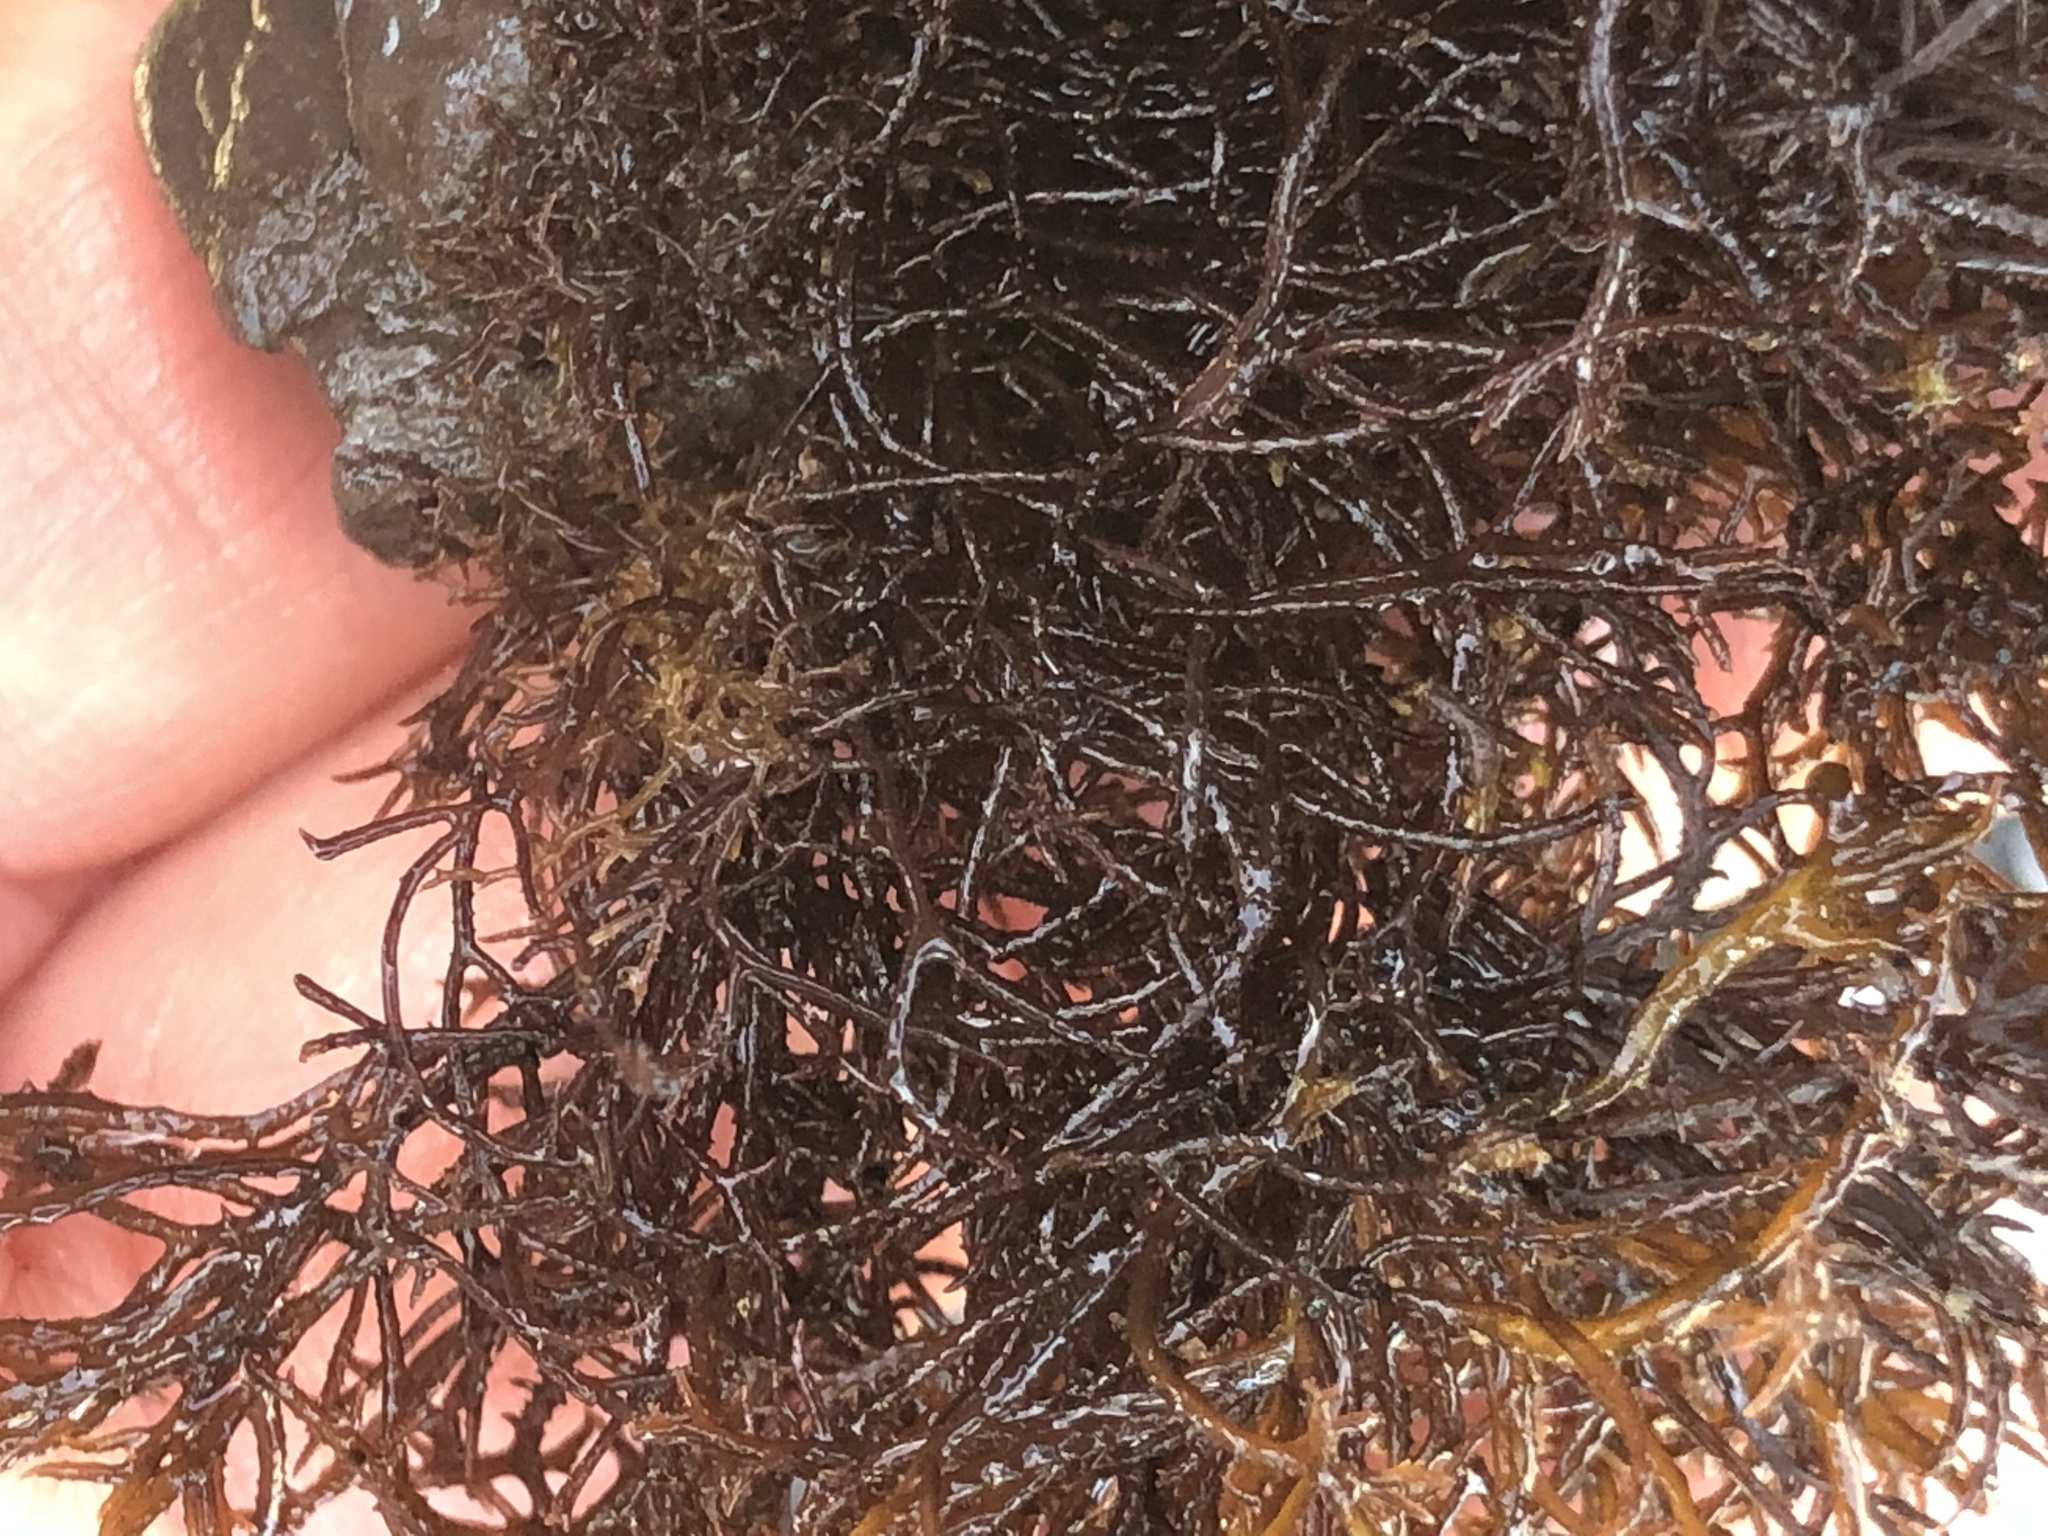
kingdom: Plantae
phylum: Rhodophyta
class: Florideophyceae
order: Gigartinales
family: Endocladiaceae
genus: Endocladia
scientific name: Endocladia muricata
